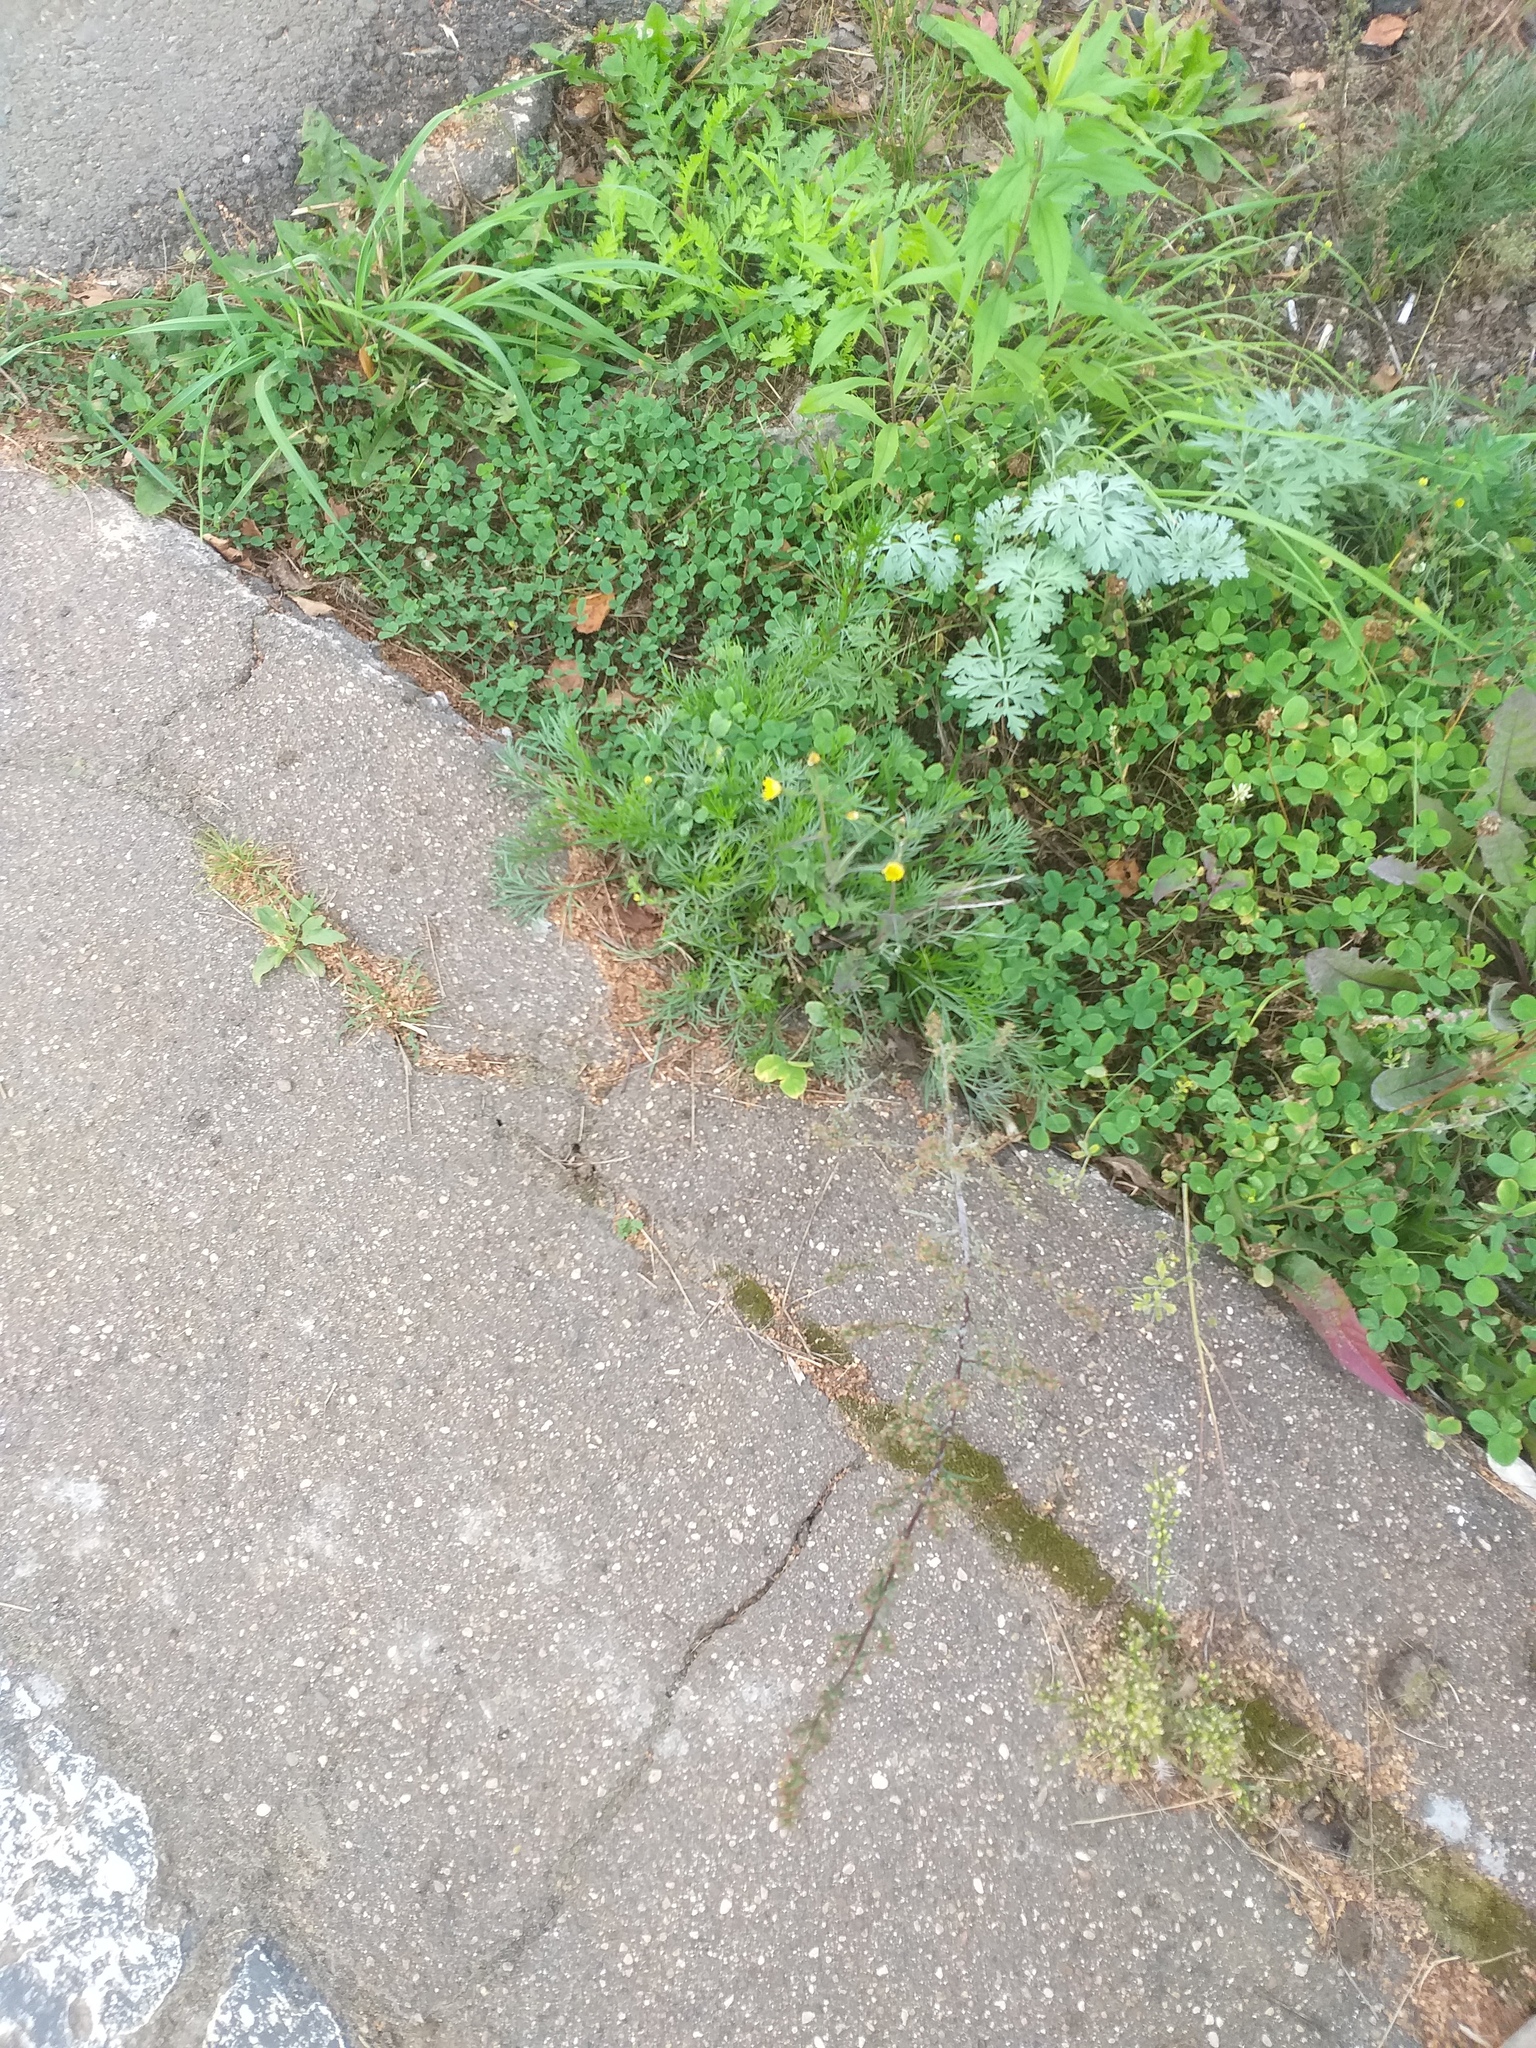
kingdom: Plantae
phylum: Tracheophyta
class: Magnoliopsida
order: Asterales
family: Asteraceae
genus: Artemisia
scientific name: Artemisia campestris
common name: Field wormwood
